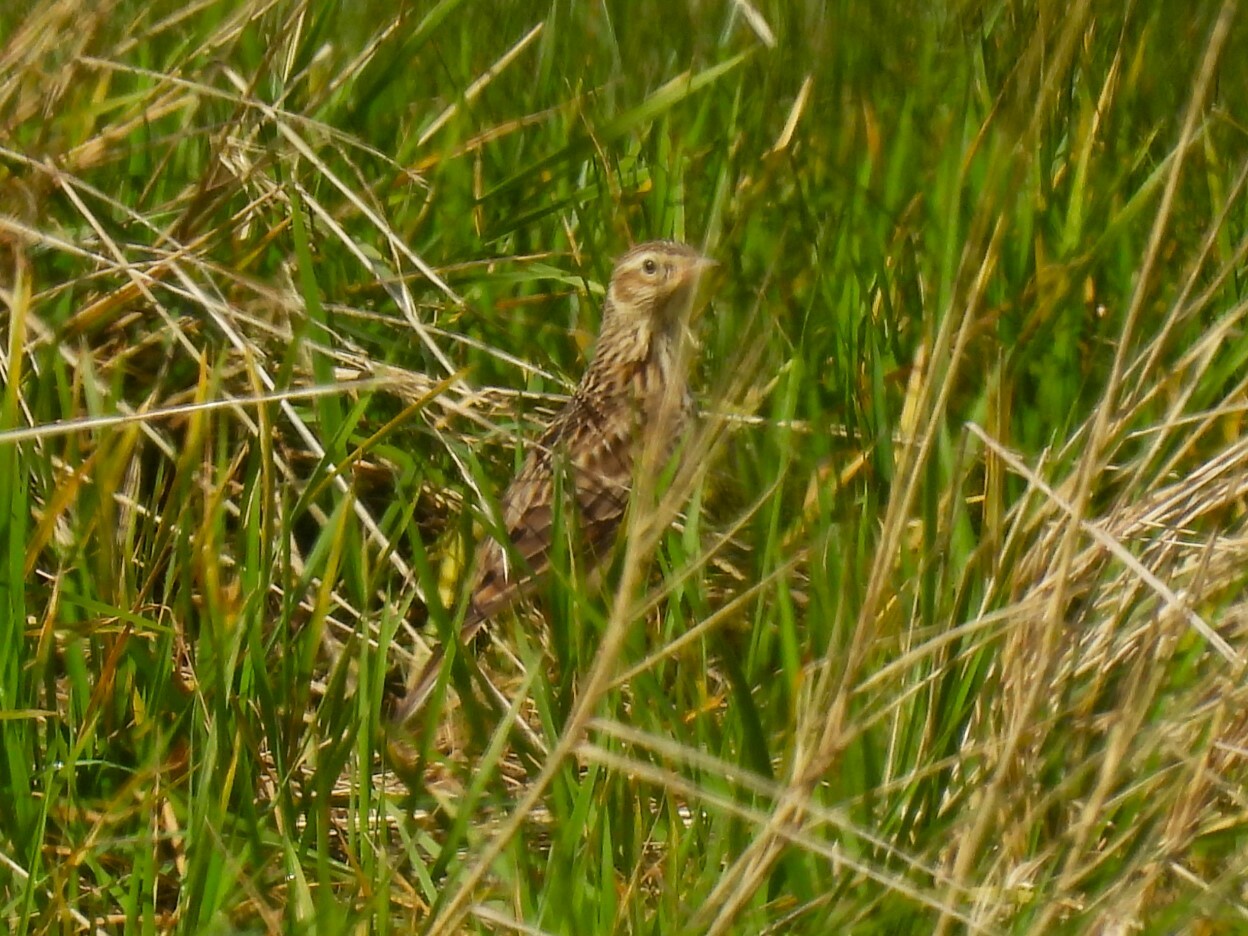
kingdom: Animalia
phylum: Chordata
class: Aves
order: Passeriformes
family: Alaudidae
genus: Alauda
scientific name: Alauda arvensis
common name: Eurasian skylark
